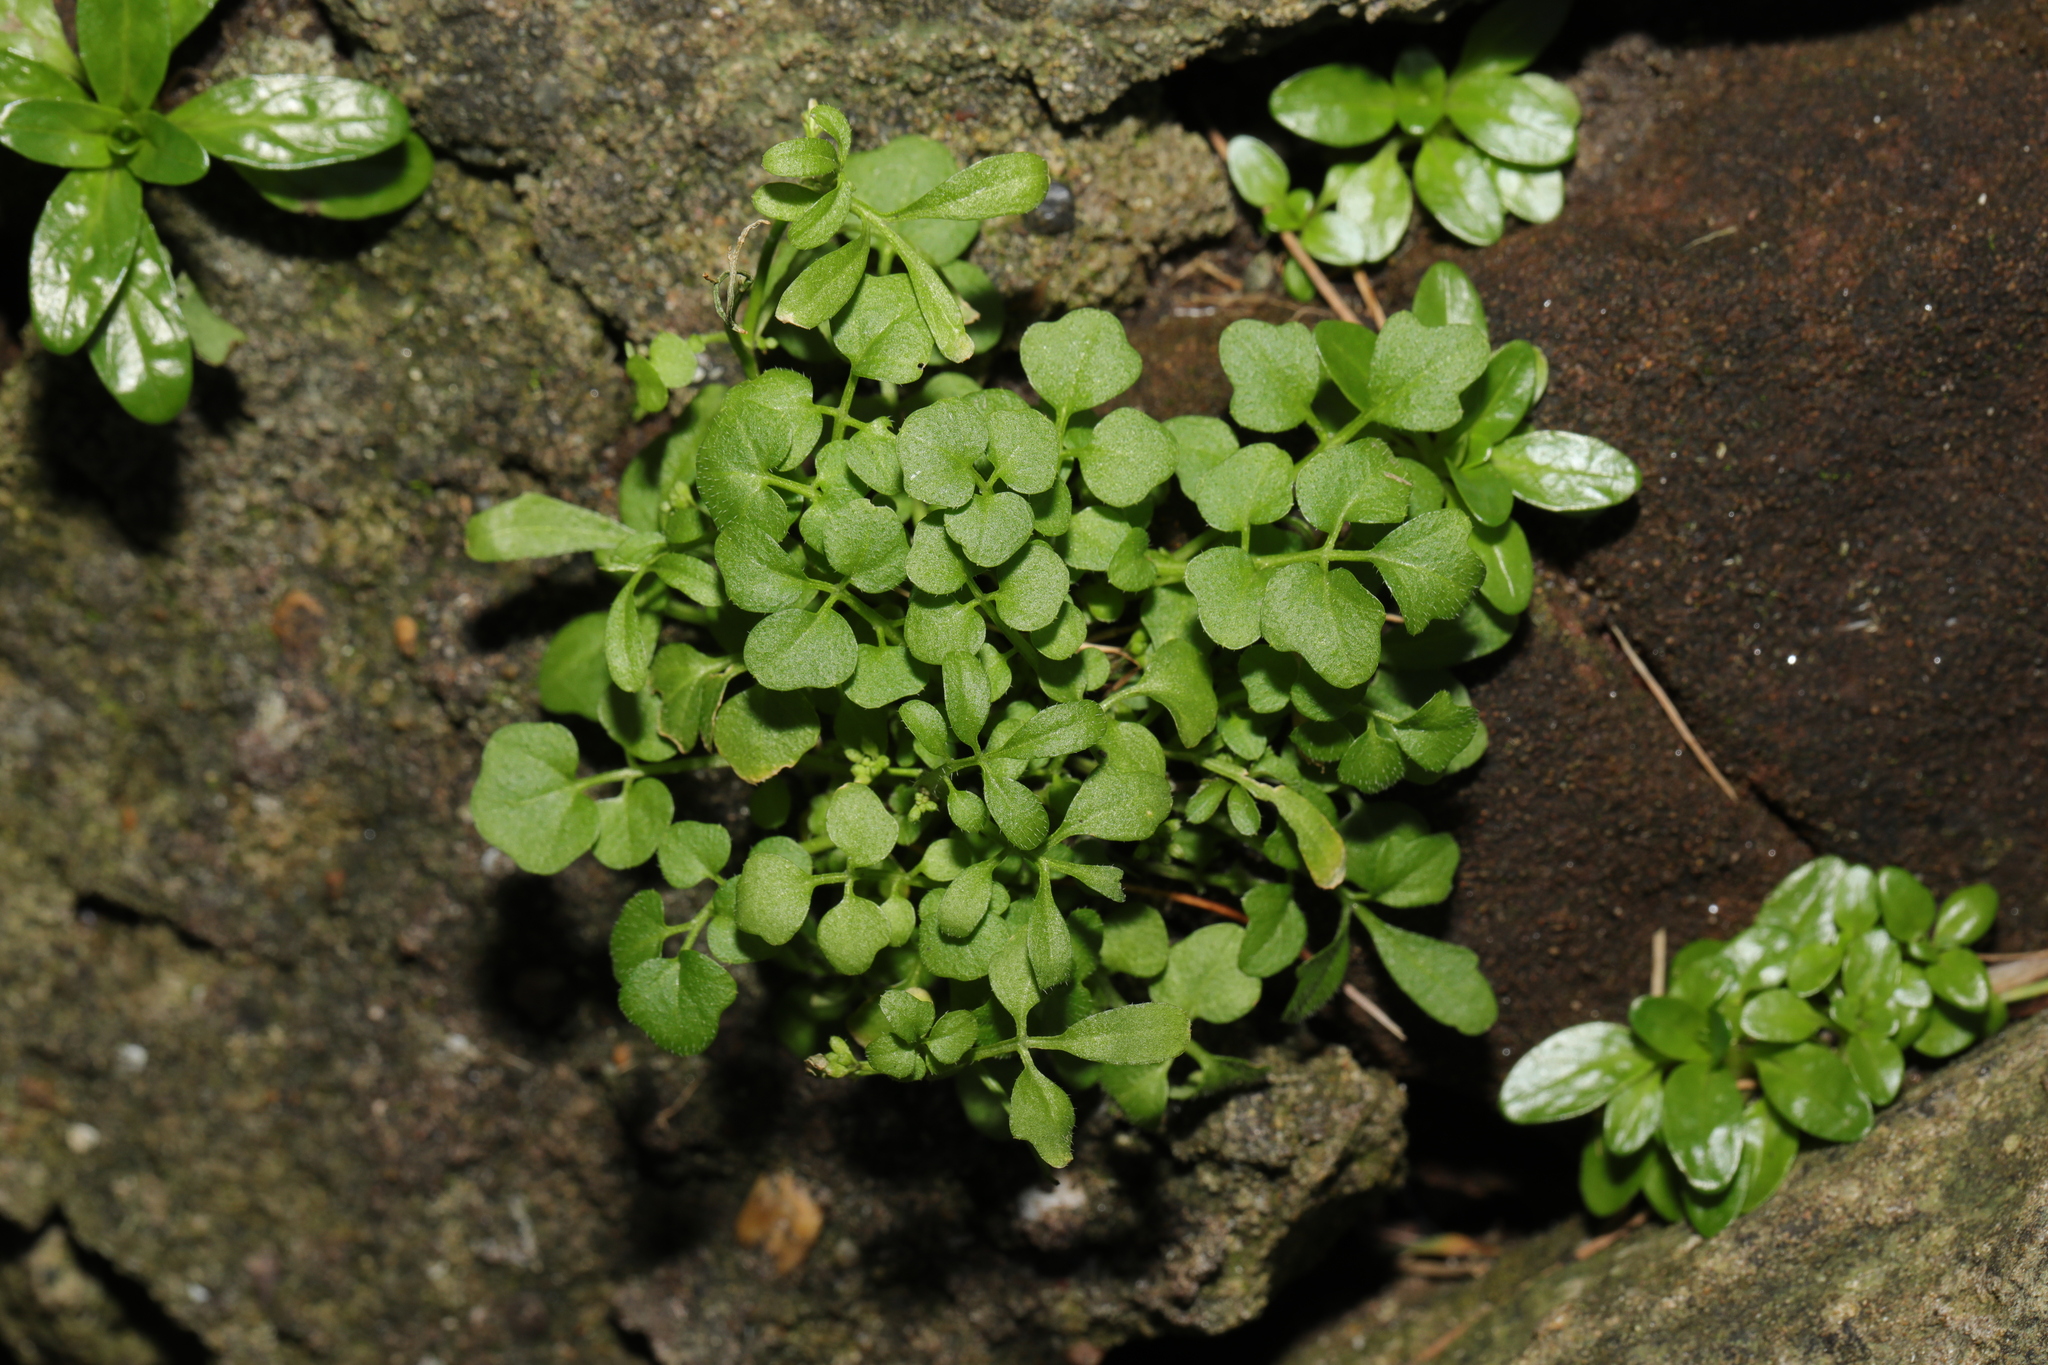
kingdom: Plantae
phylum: Tracheophyta
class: Magnoliopsida
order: Brassicales
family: Brassicaceae
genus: Cardamine
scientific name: Cardamine flexuosa
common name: Woodland bittercress
